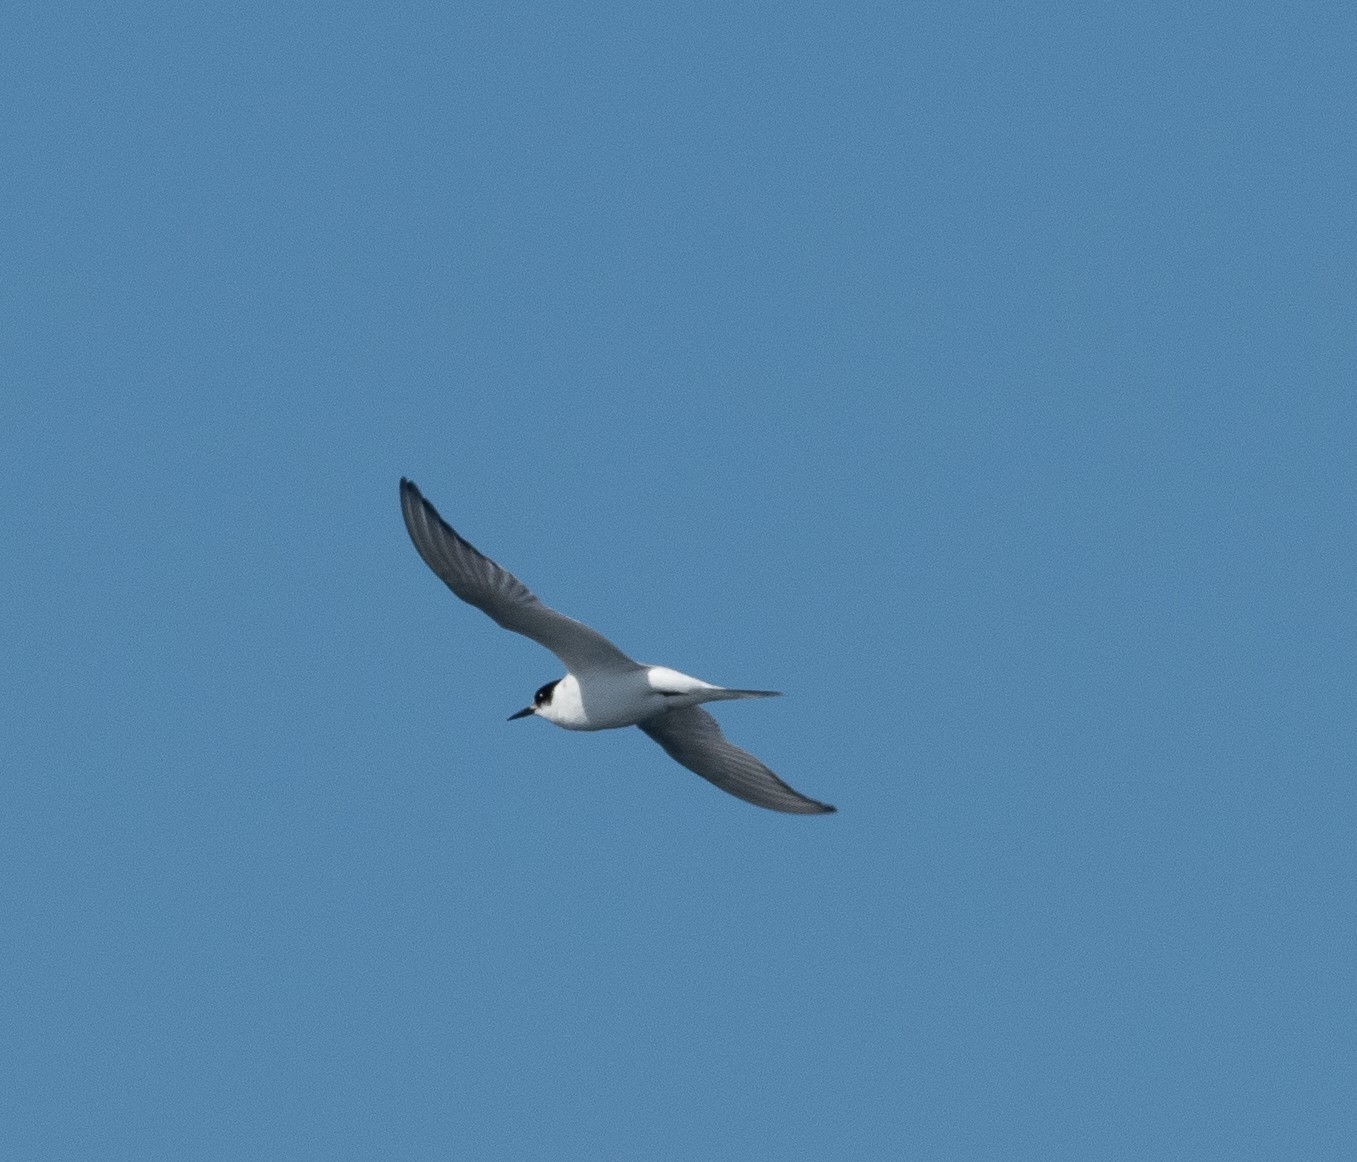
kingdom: Animalia
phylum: Chordata
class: Aves
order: Charadriiformes
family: Laridae
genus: Sterna
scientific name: Sterna hirundo
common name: Common tern
